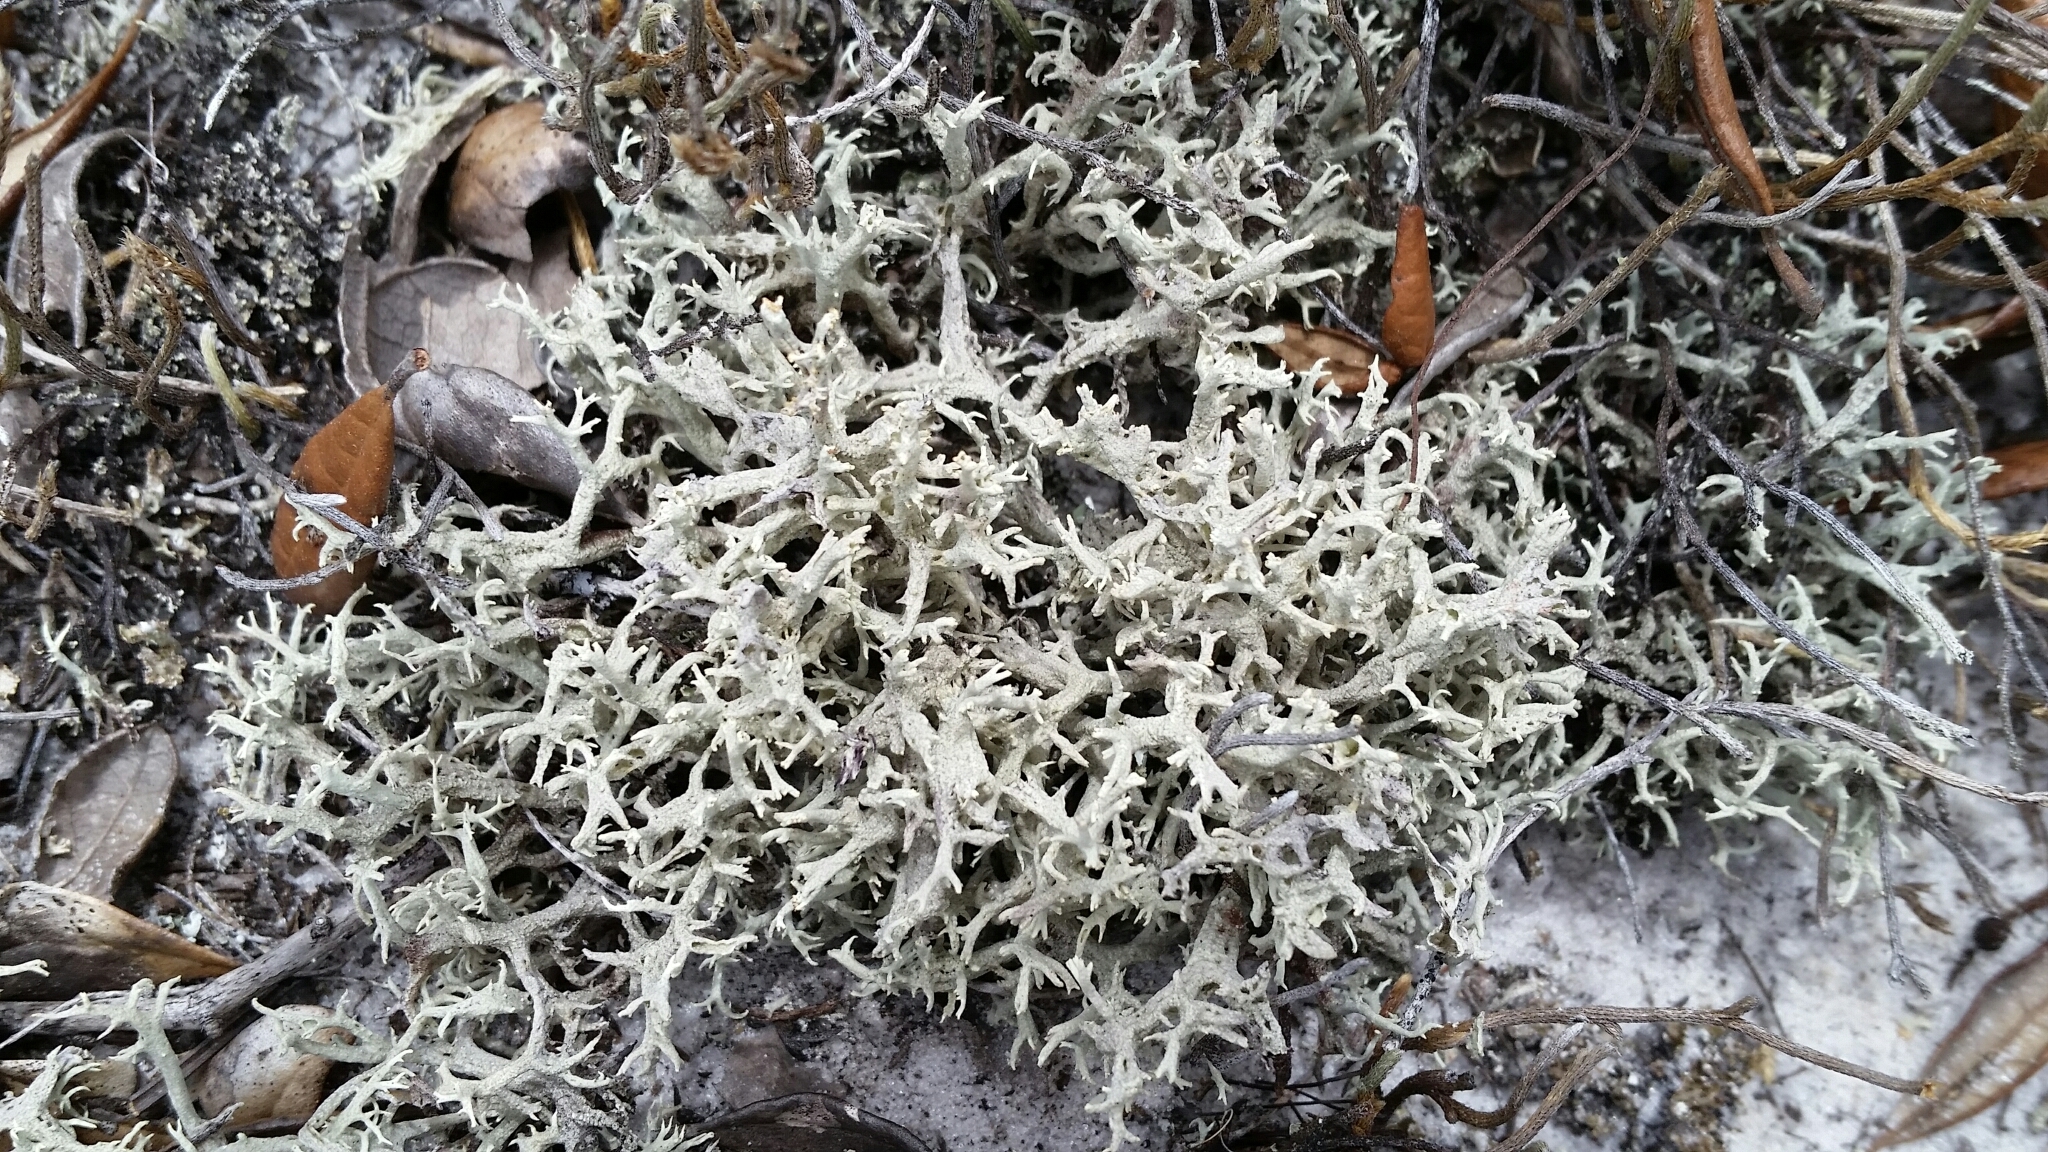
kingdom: Fungi
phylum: Ascomycota
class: Lecanoromycetes
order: Lecanorales
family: Cladoniaceae
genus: Cladonia
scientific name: Cladonia pachycladodes
